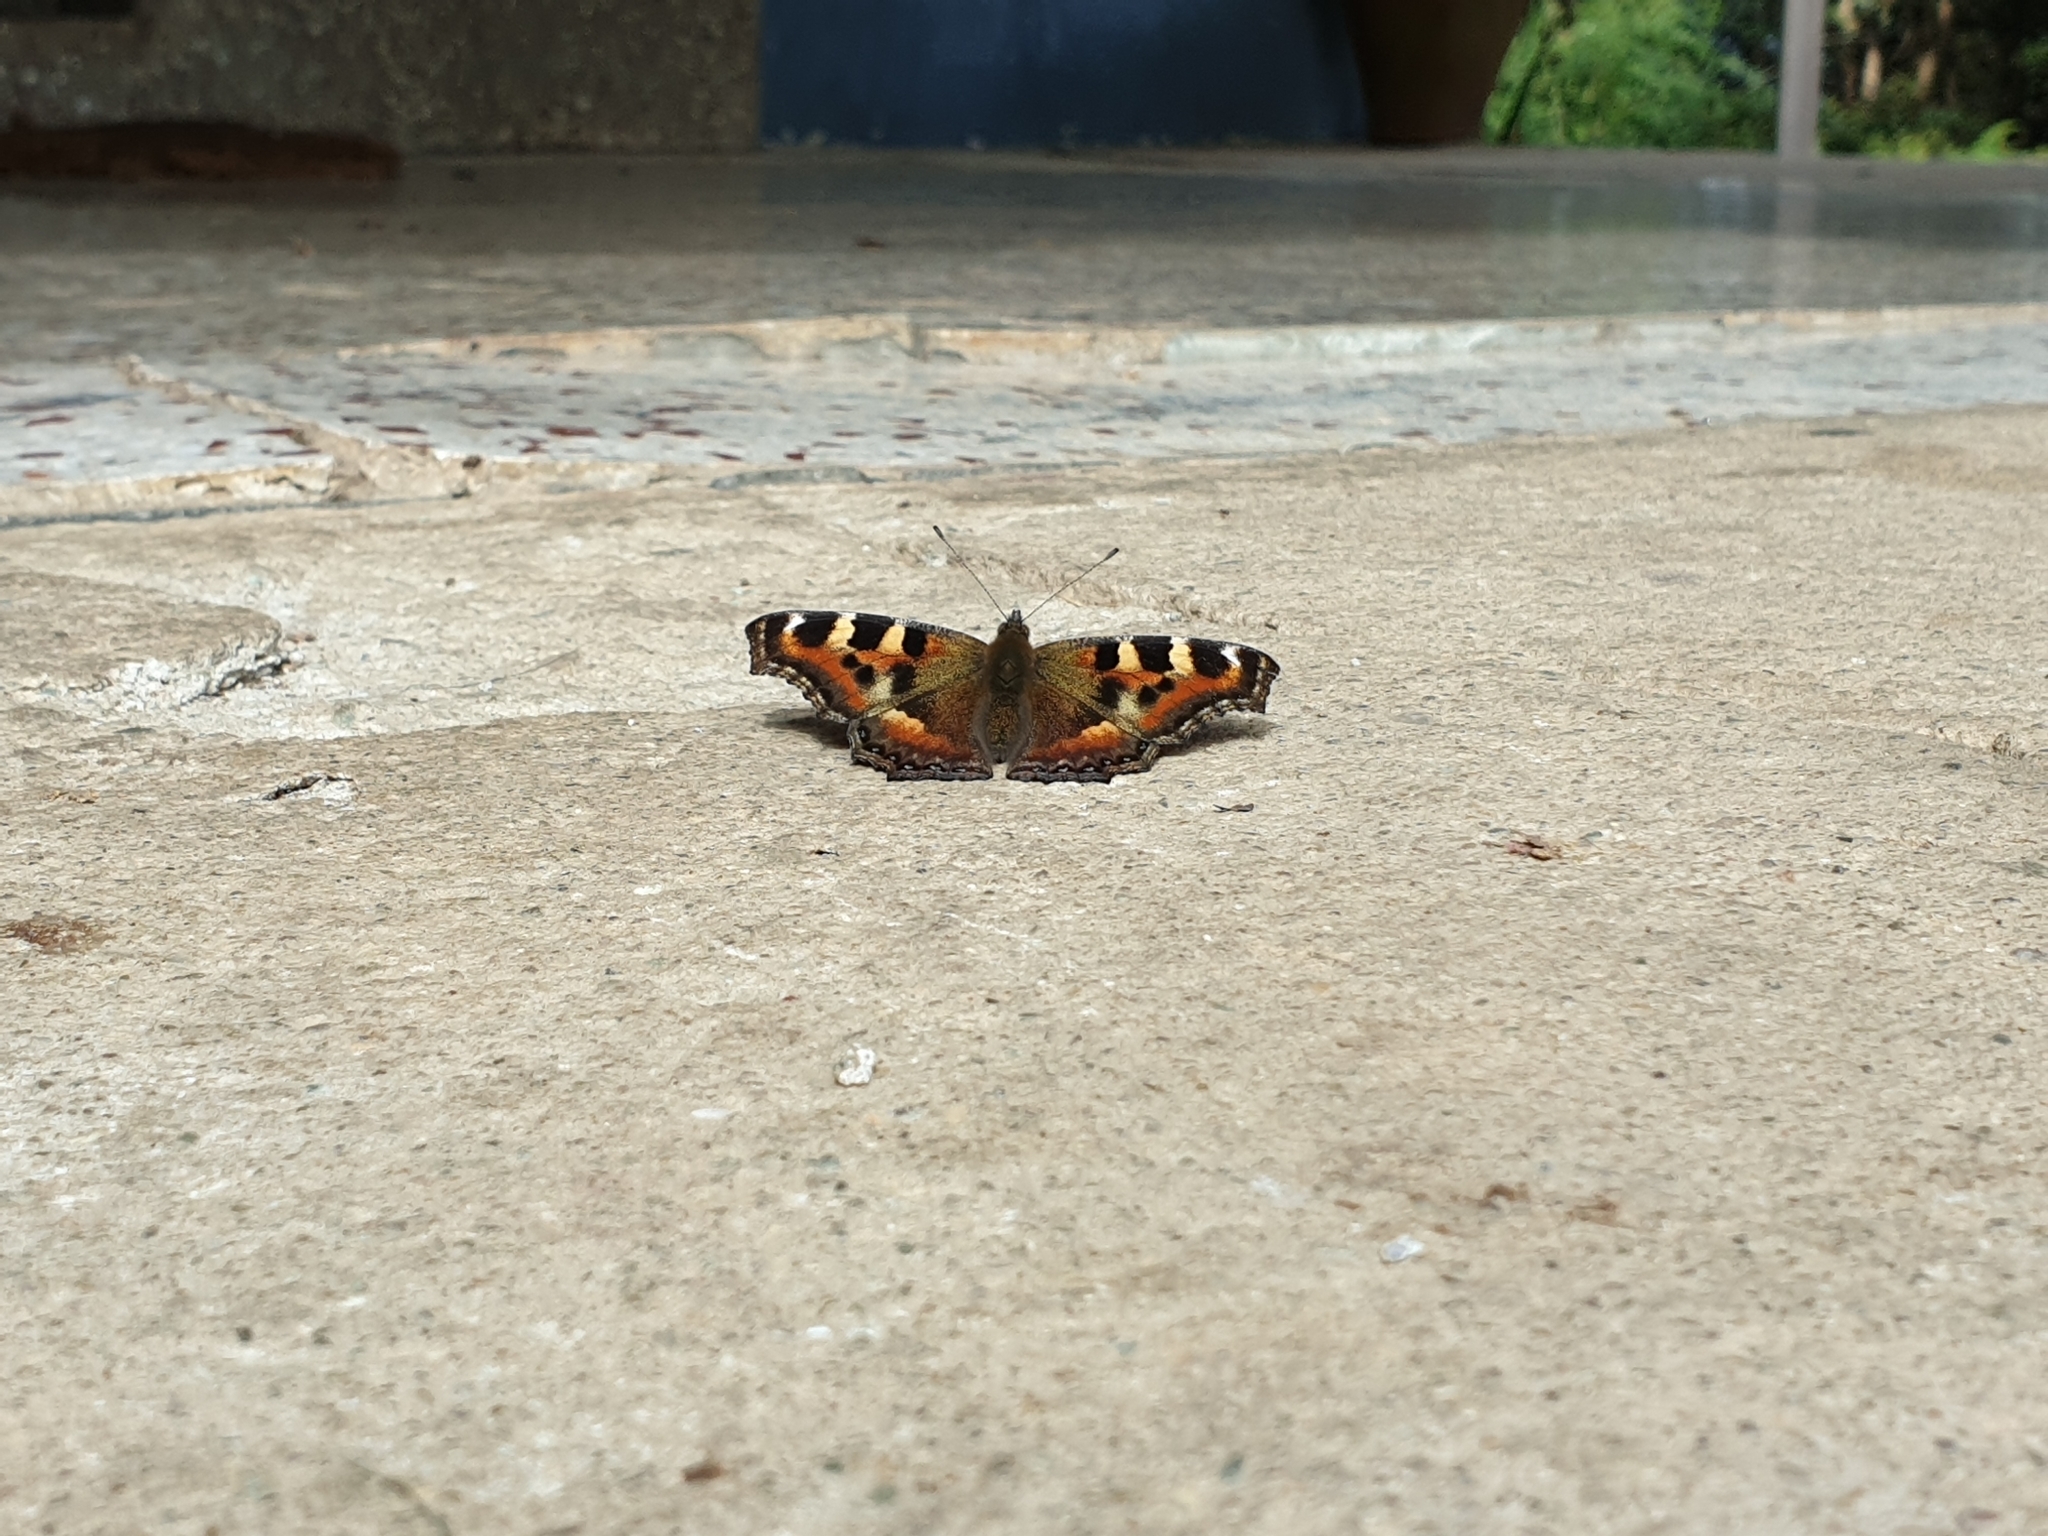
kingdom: Animalia
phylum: Arthropoda
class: Insecta
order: Lepidoptera
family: Nymphalidae
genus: Aglais
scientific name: Aglais caschmirensis
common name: Indian tortoiseshell
